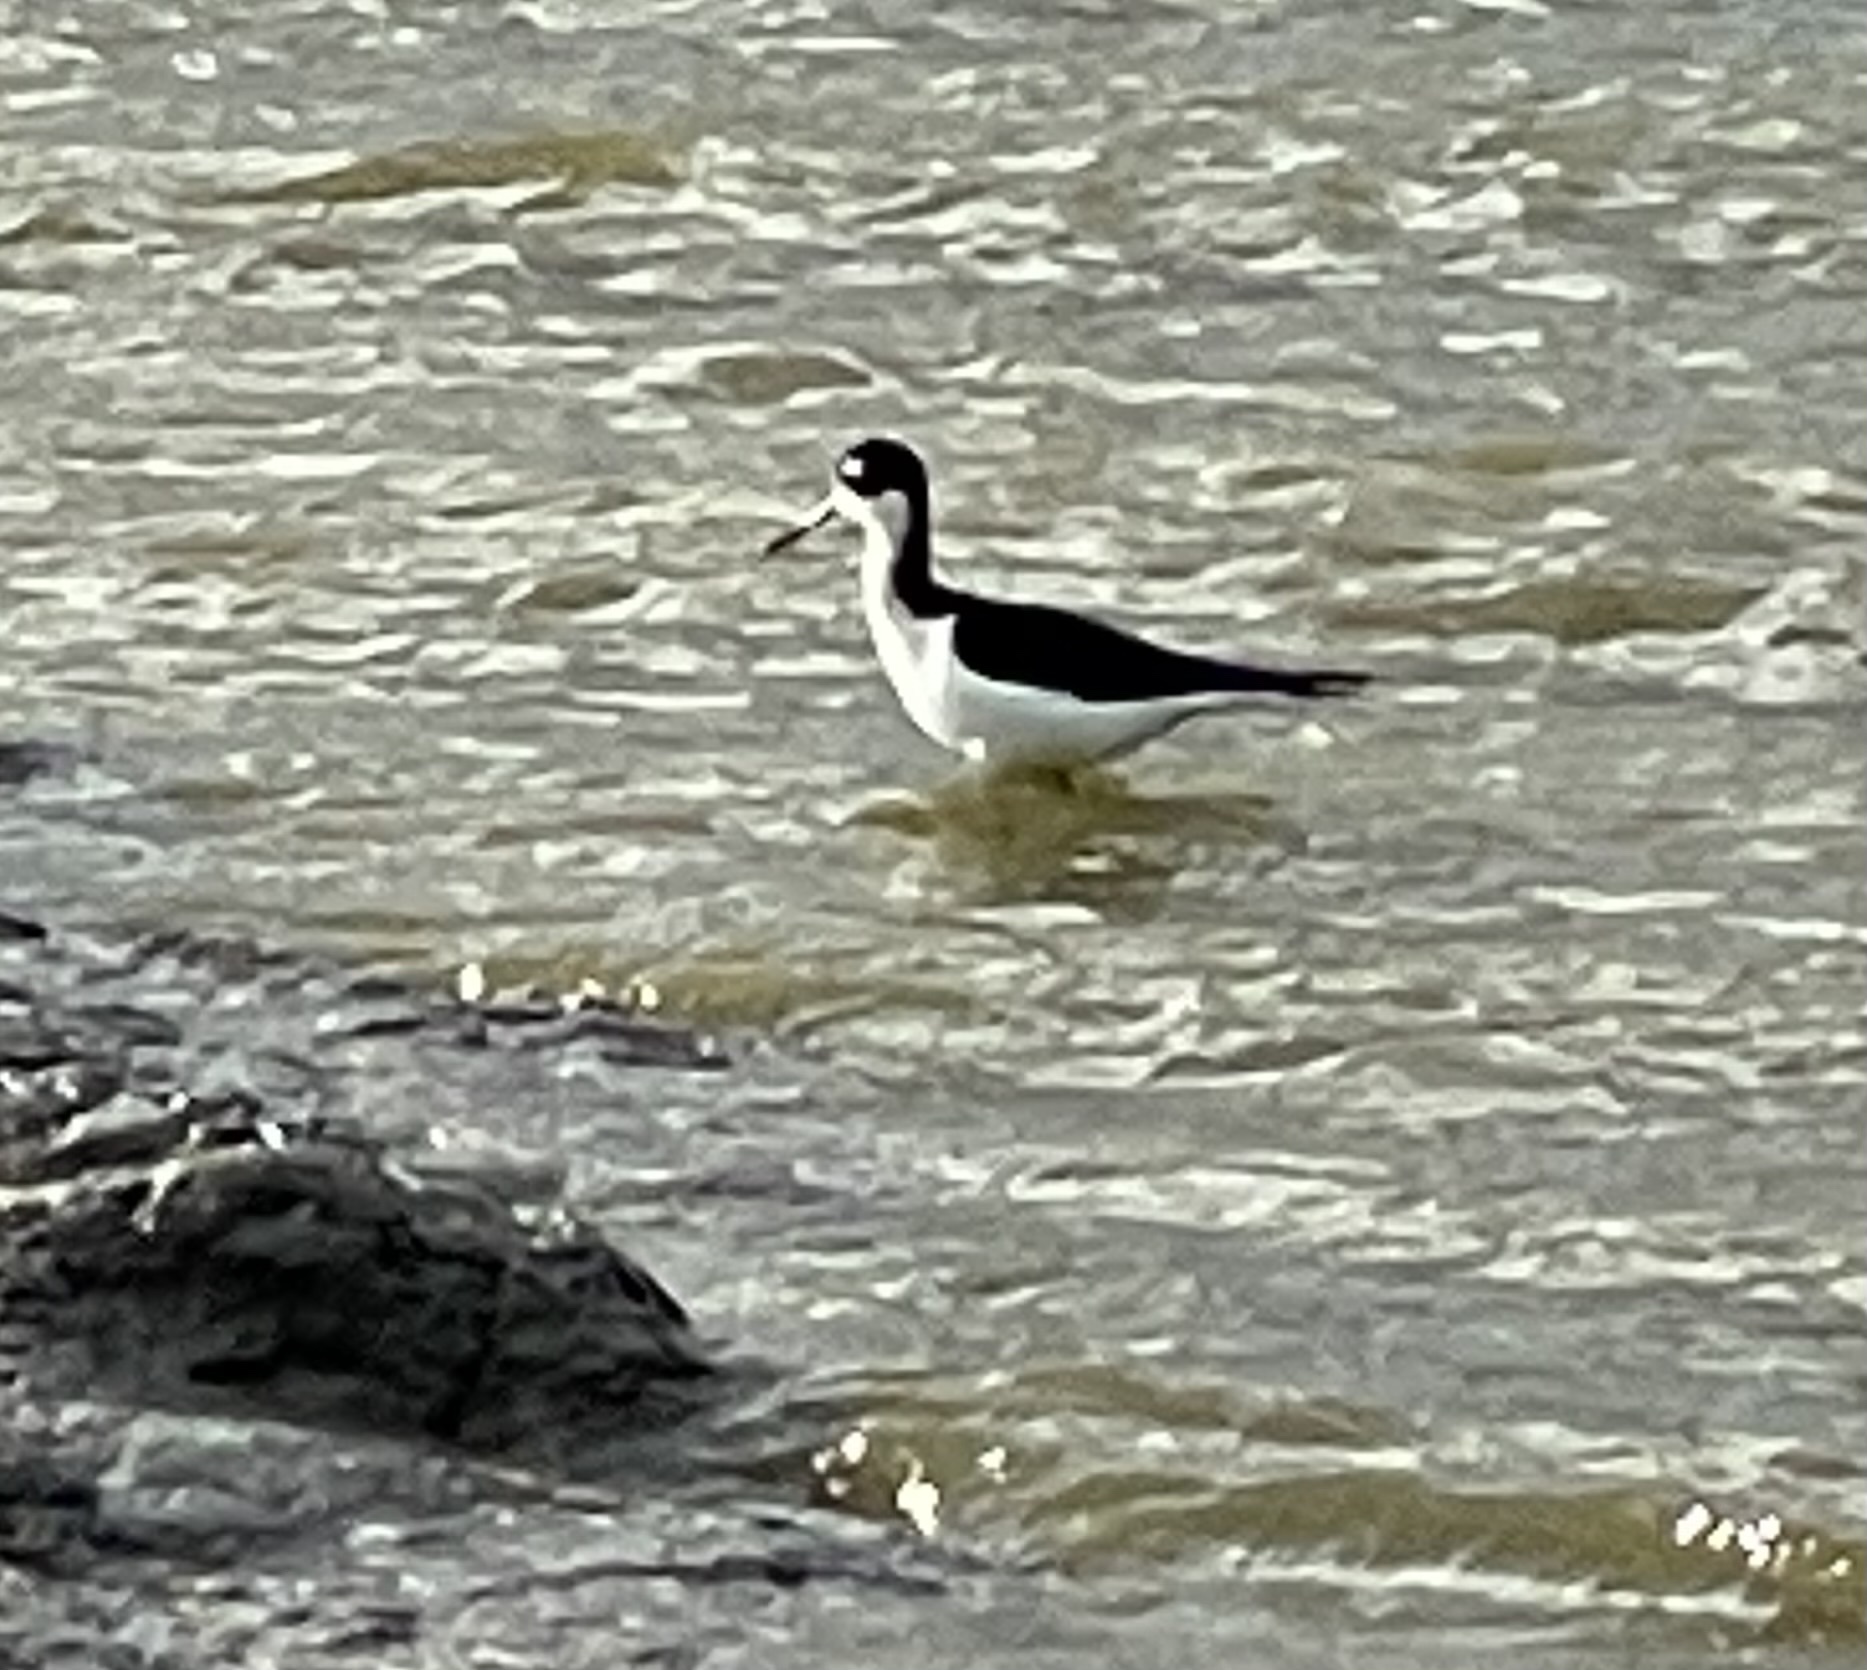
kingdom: Animalia
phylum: Chordata
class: Aves
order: Charadriiformes
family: Recurvirostridae
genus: Himantopus
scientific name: Himantopus mexicanus
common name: Black-necked stilt
